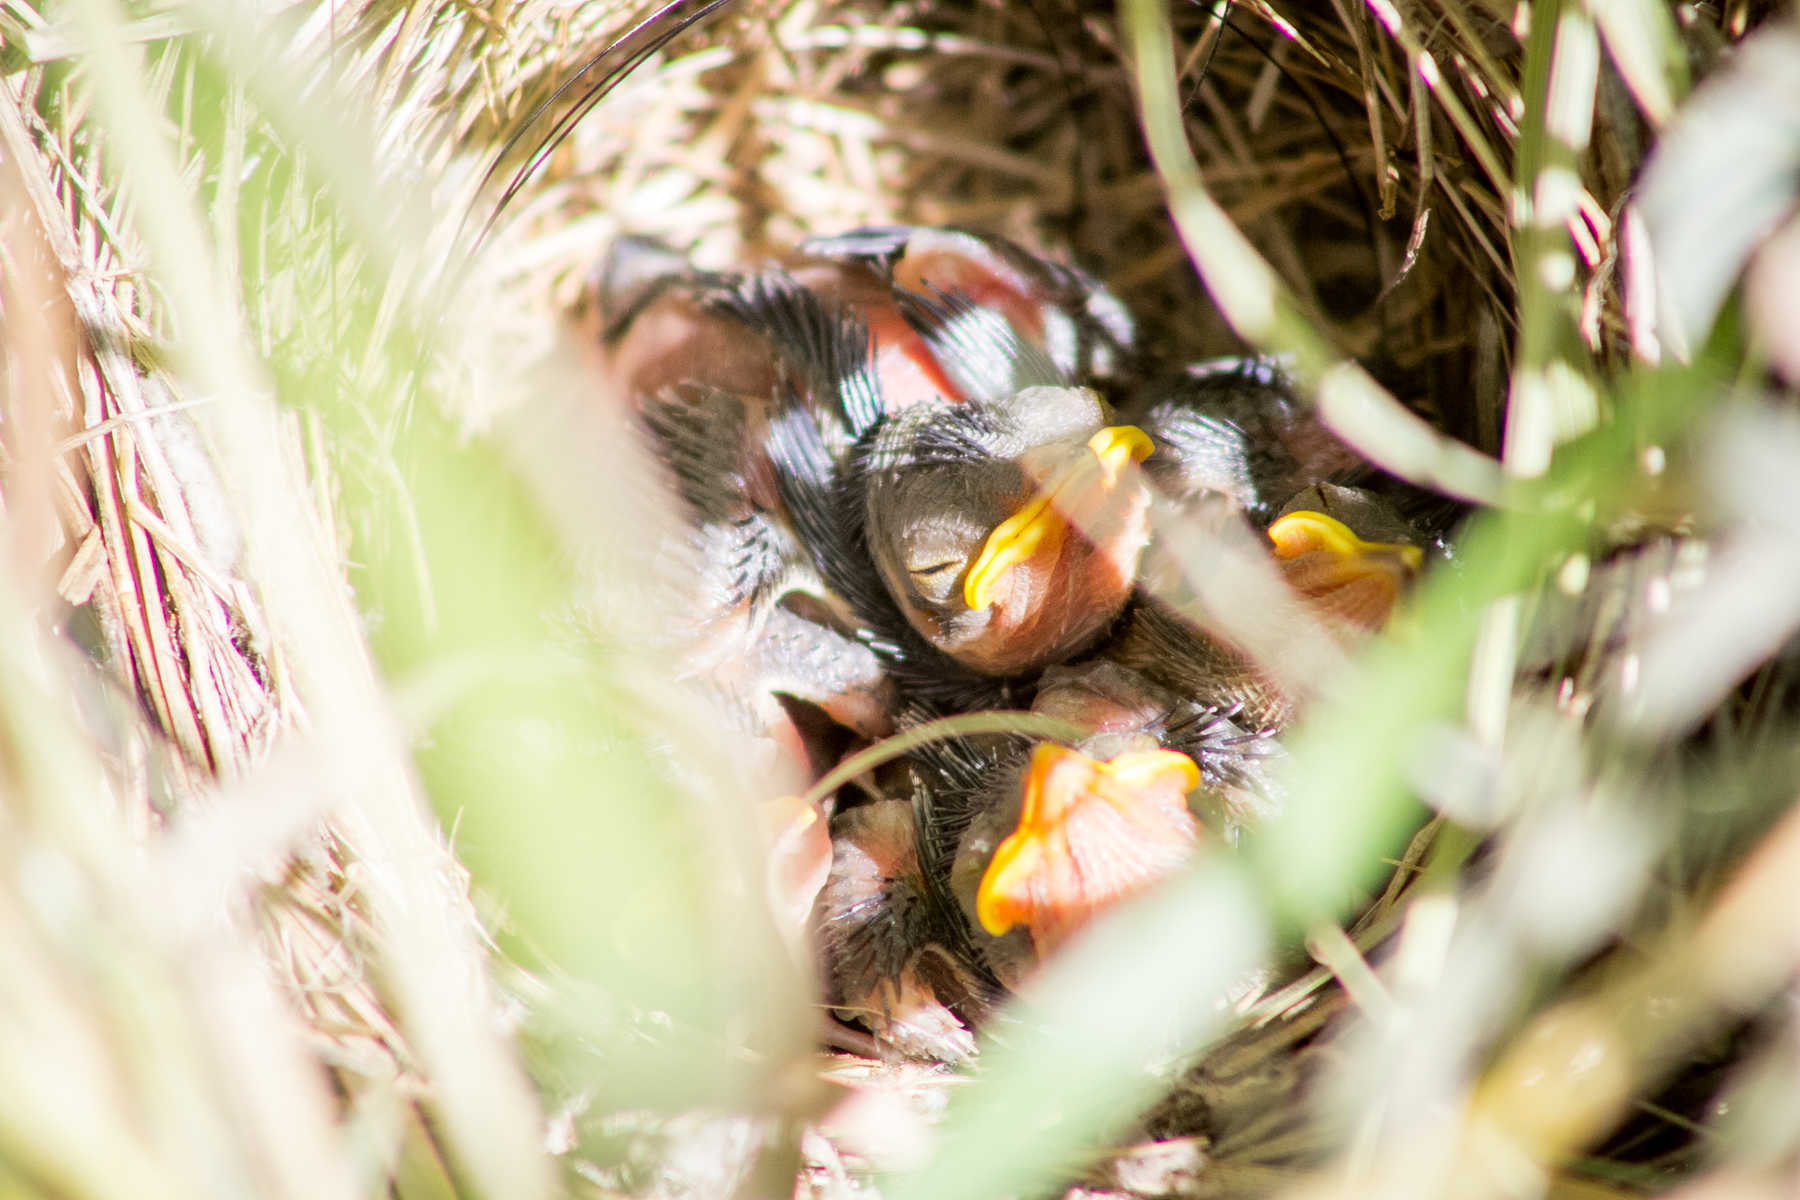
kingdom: Animalia
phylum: Chordata
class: Aves
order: Passeriformes
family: Sylviidae
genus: Sylvia
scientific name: Sylvia communis
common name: Common whitethroat
